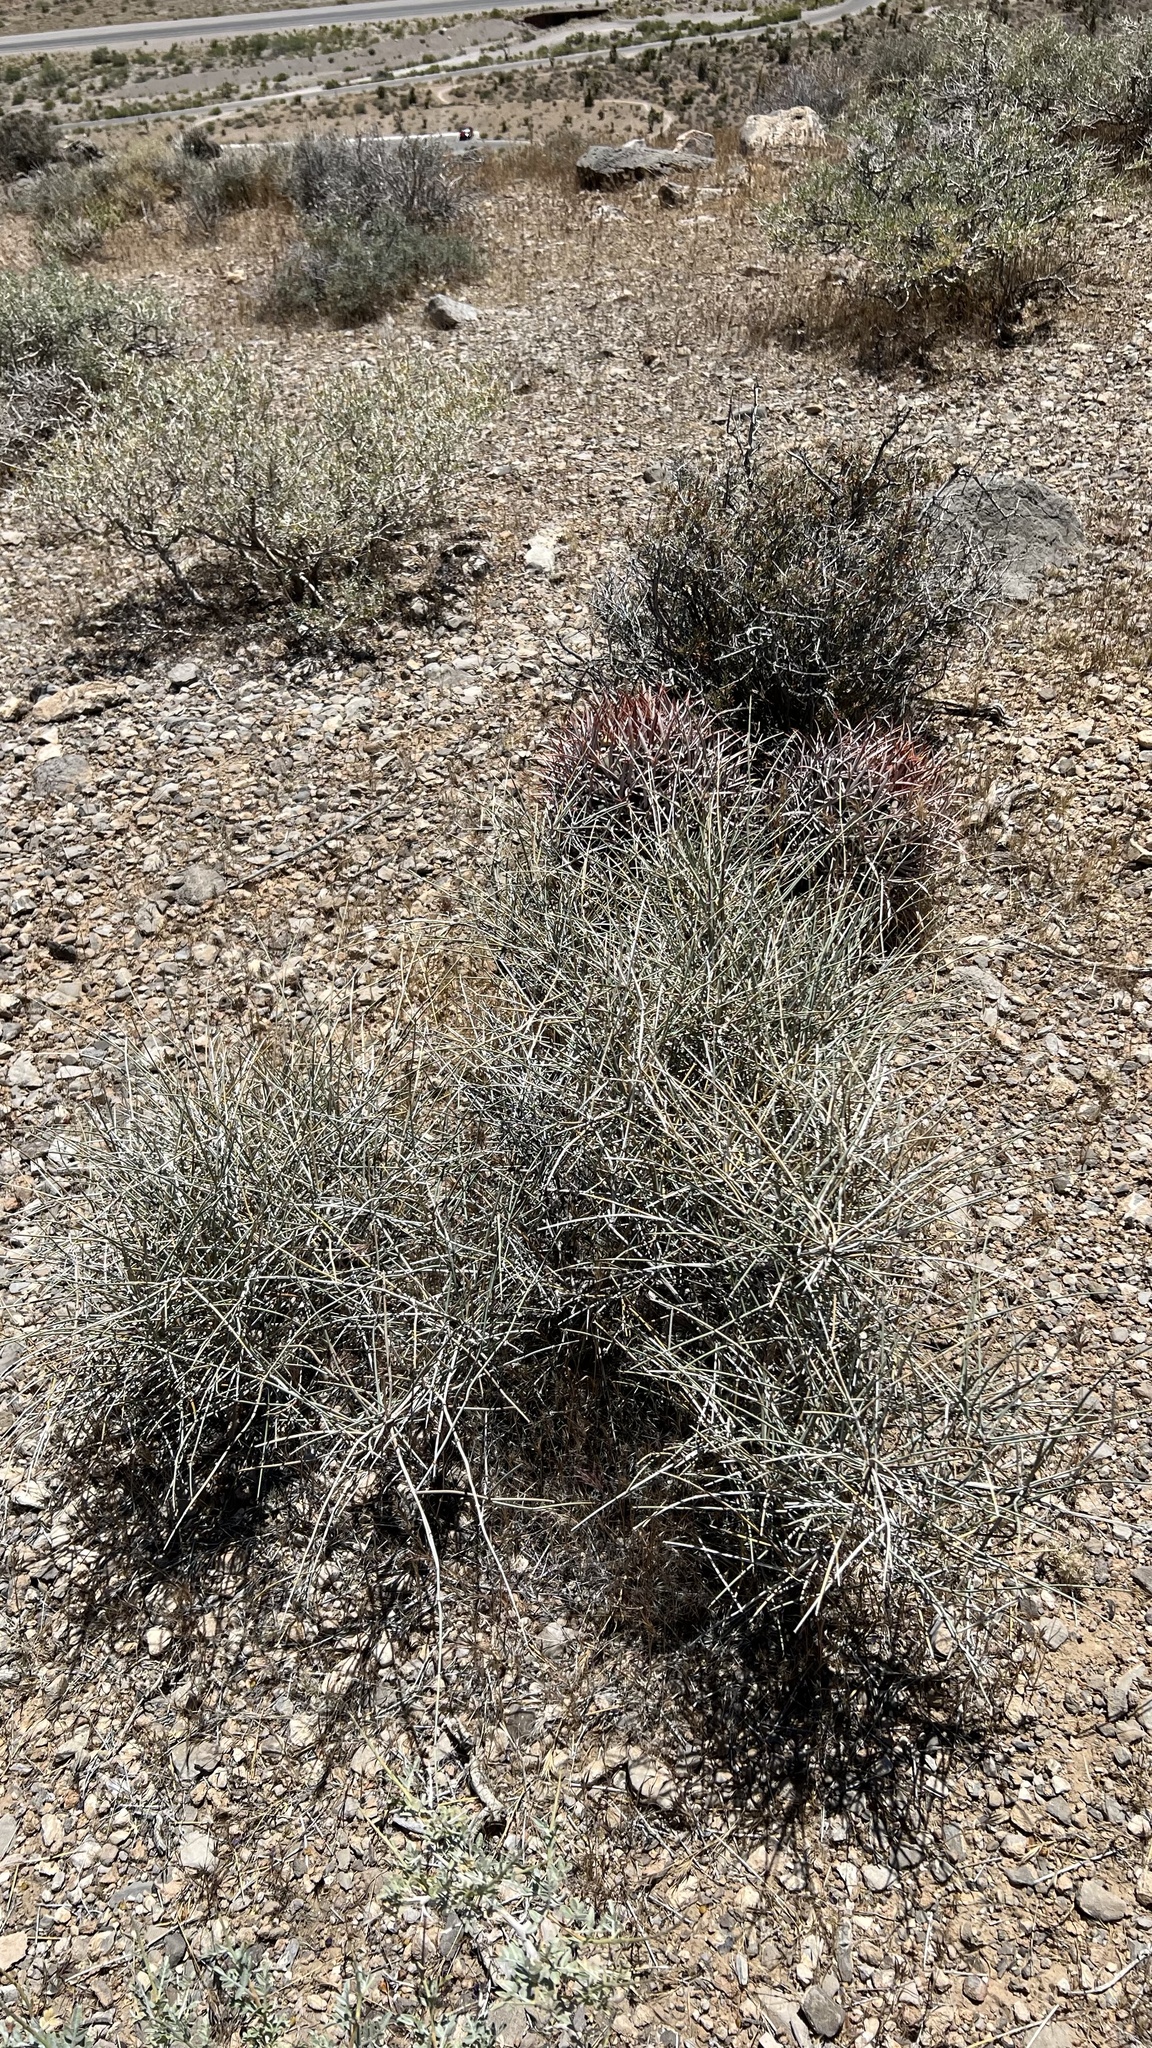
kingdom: Plantae
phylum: Tracheophyta
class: Gnetopsida
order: Ephedrales
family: Ephedraceae
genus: Ephedra
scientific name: Ephedra nevadensis
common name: Gray ephedra
